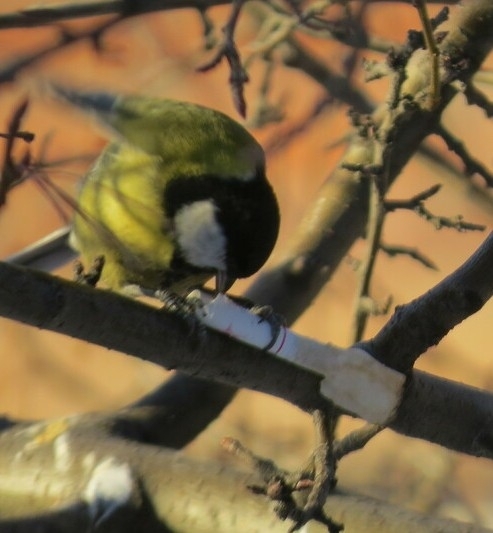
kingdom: Animalia
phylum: Chordata
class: Aves
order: Passeriformes
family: Paridae
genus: Parus
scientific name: Parus major
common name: Great tit
